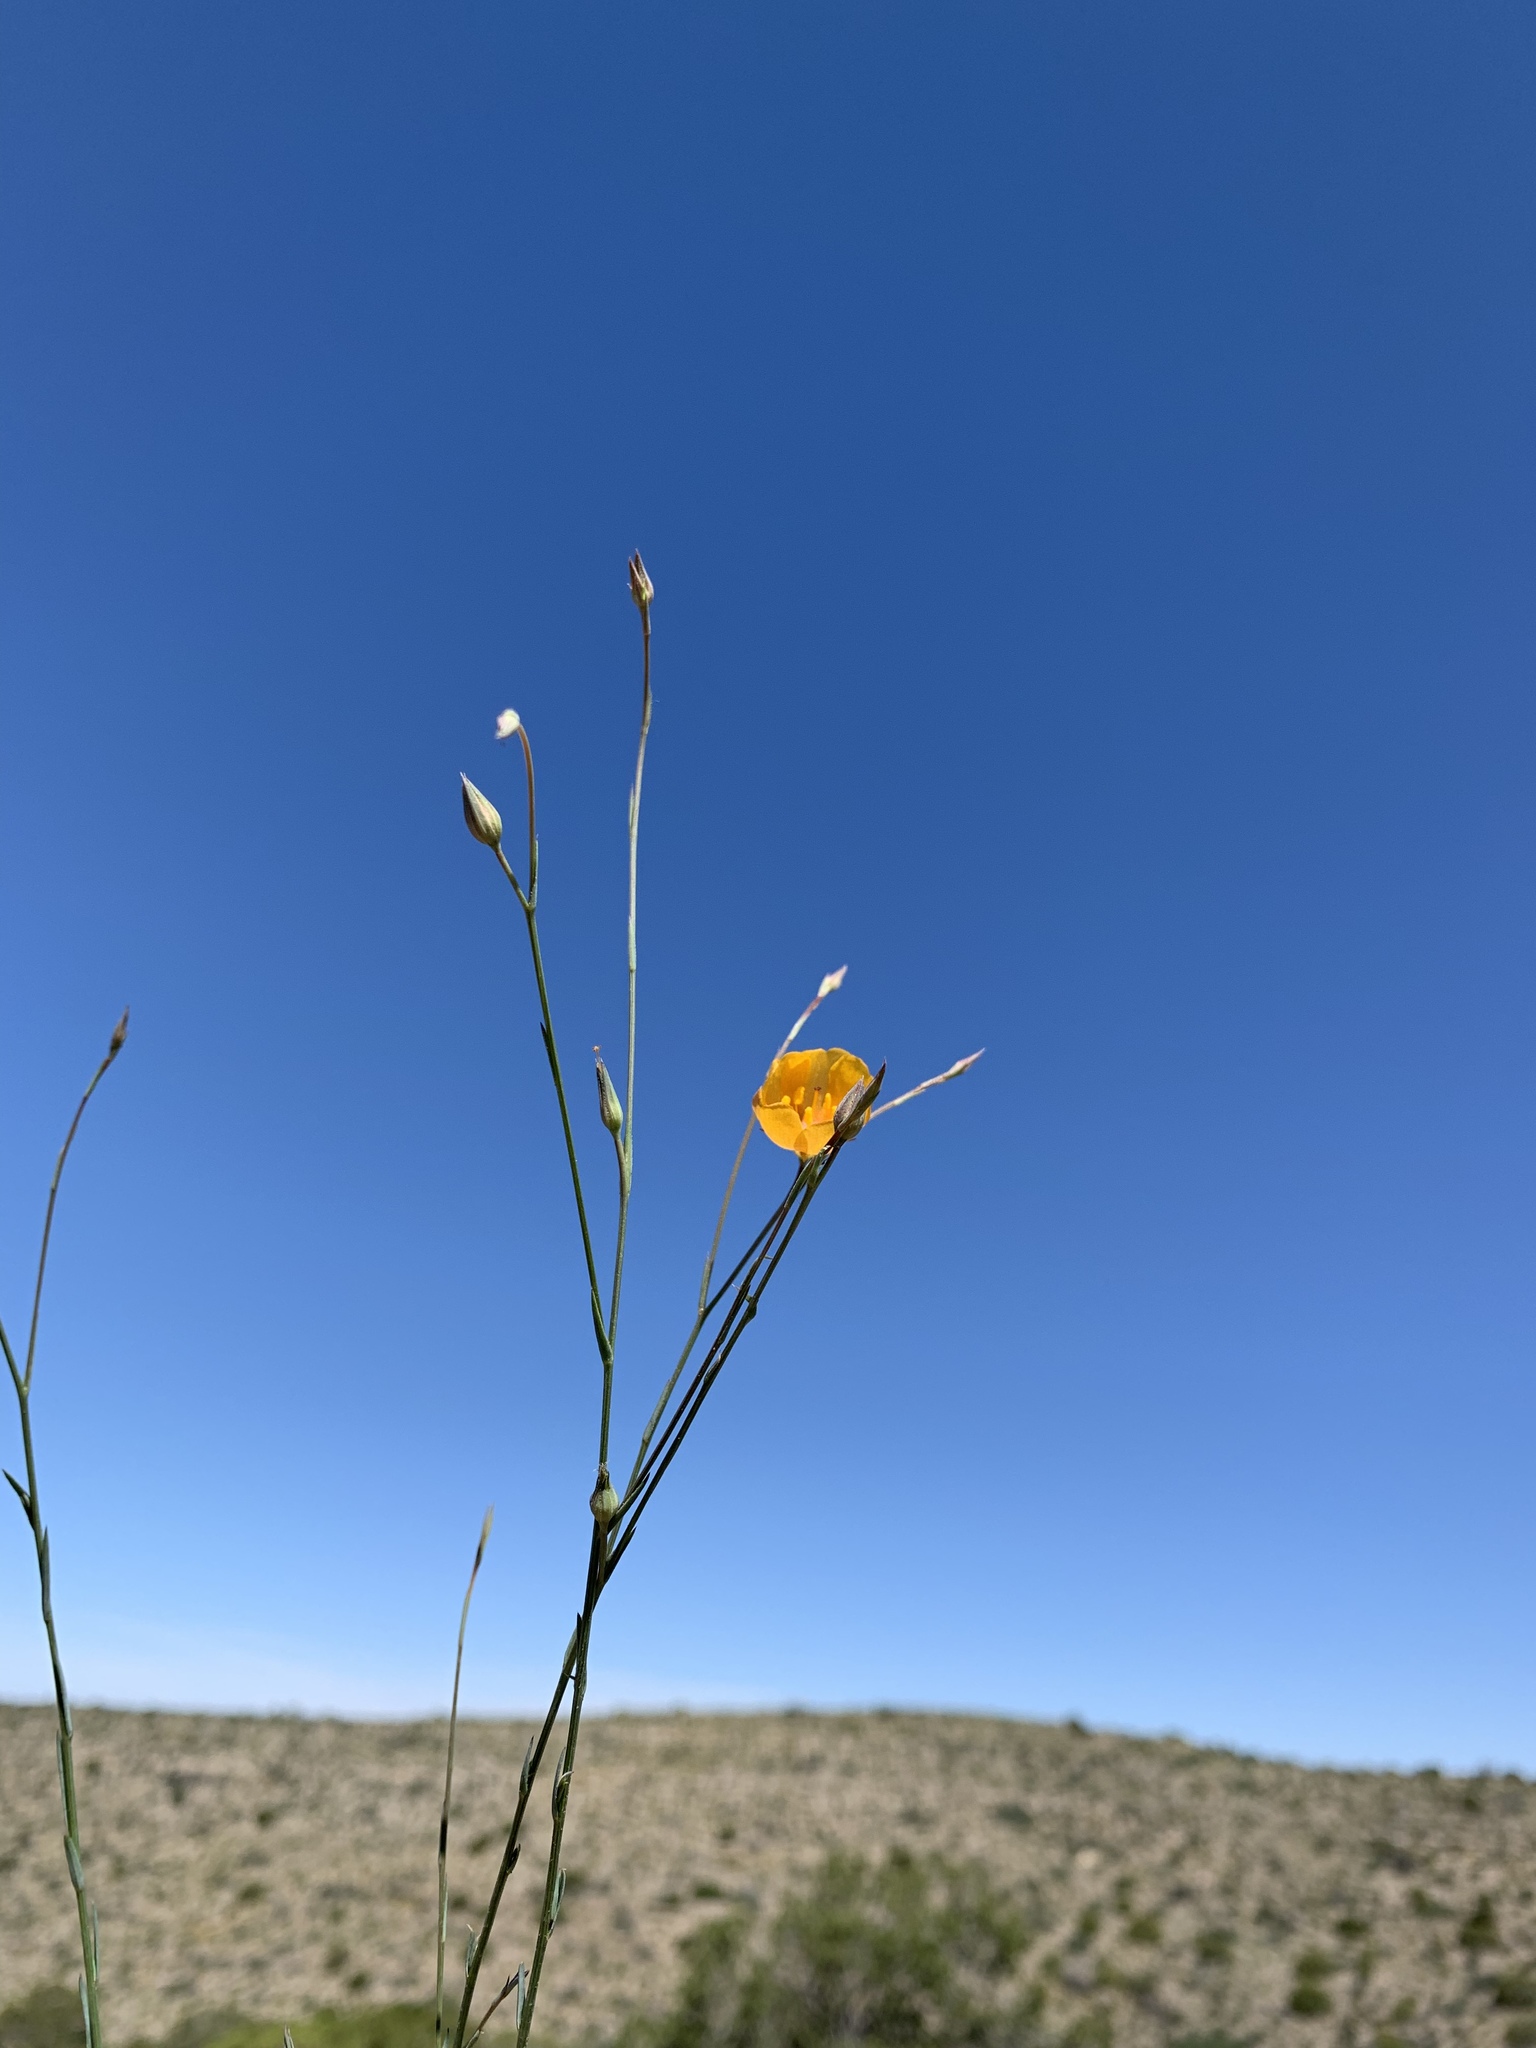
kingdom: Plantae
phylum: Tracheophyta
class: Magnoliopsida
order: Malpighiales
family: Linaceae
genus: Linum
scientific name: Linum berlandieri
